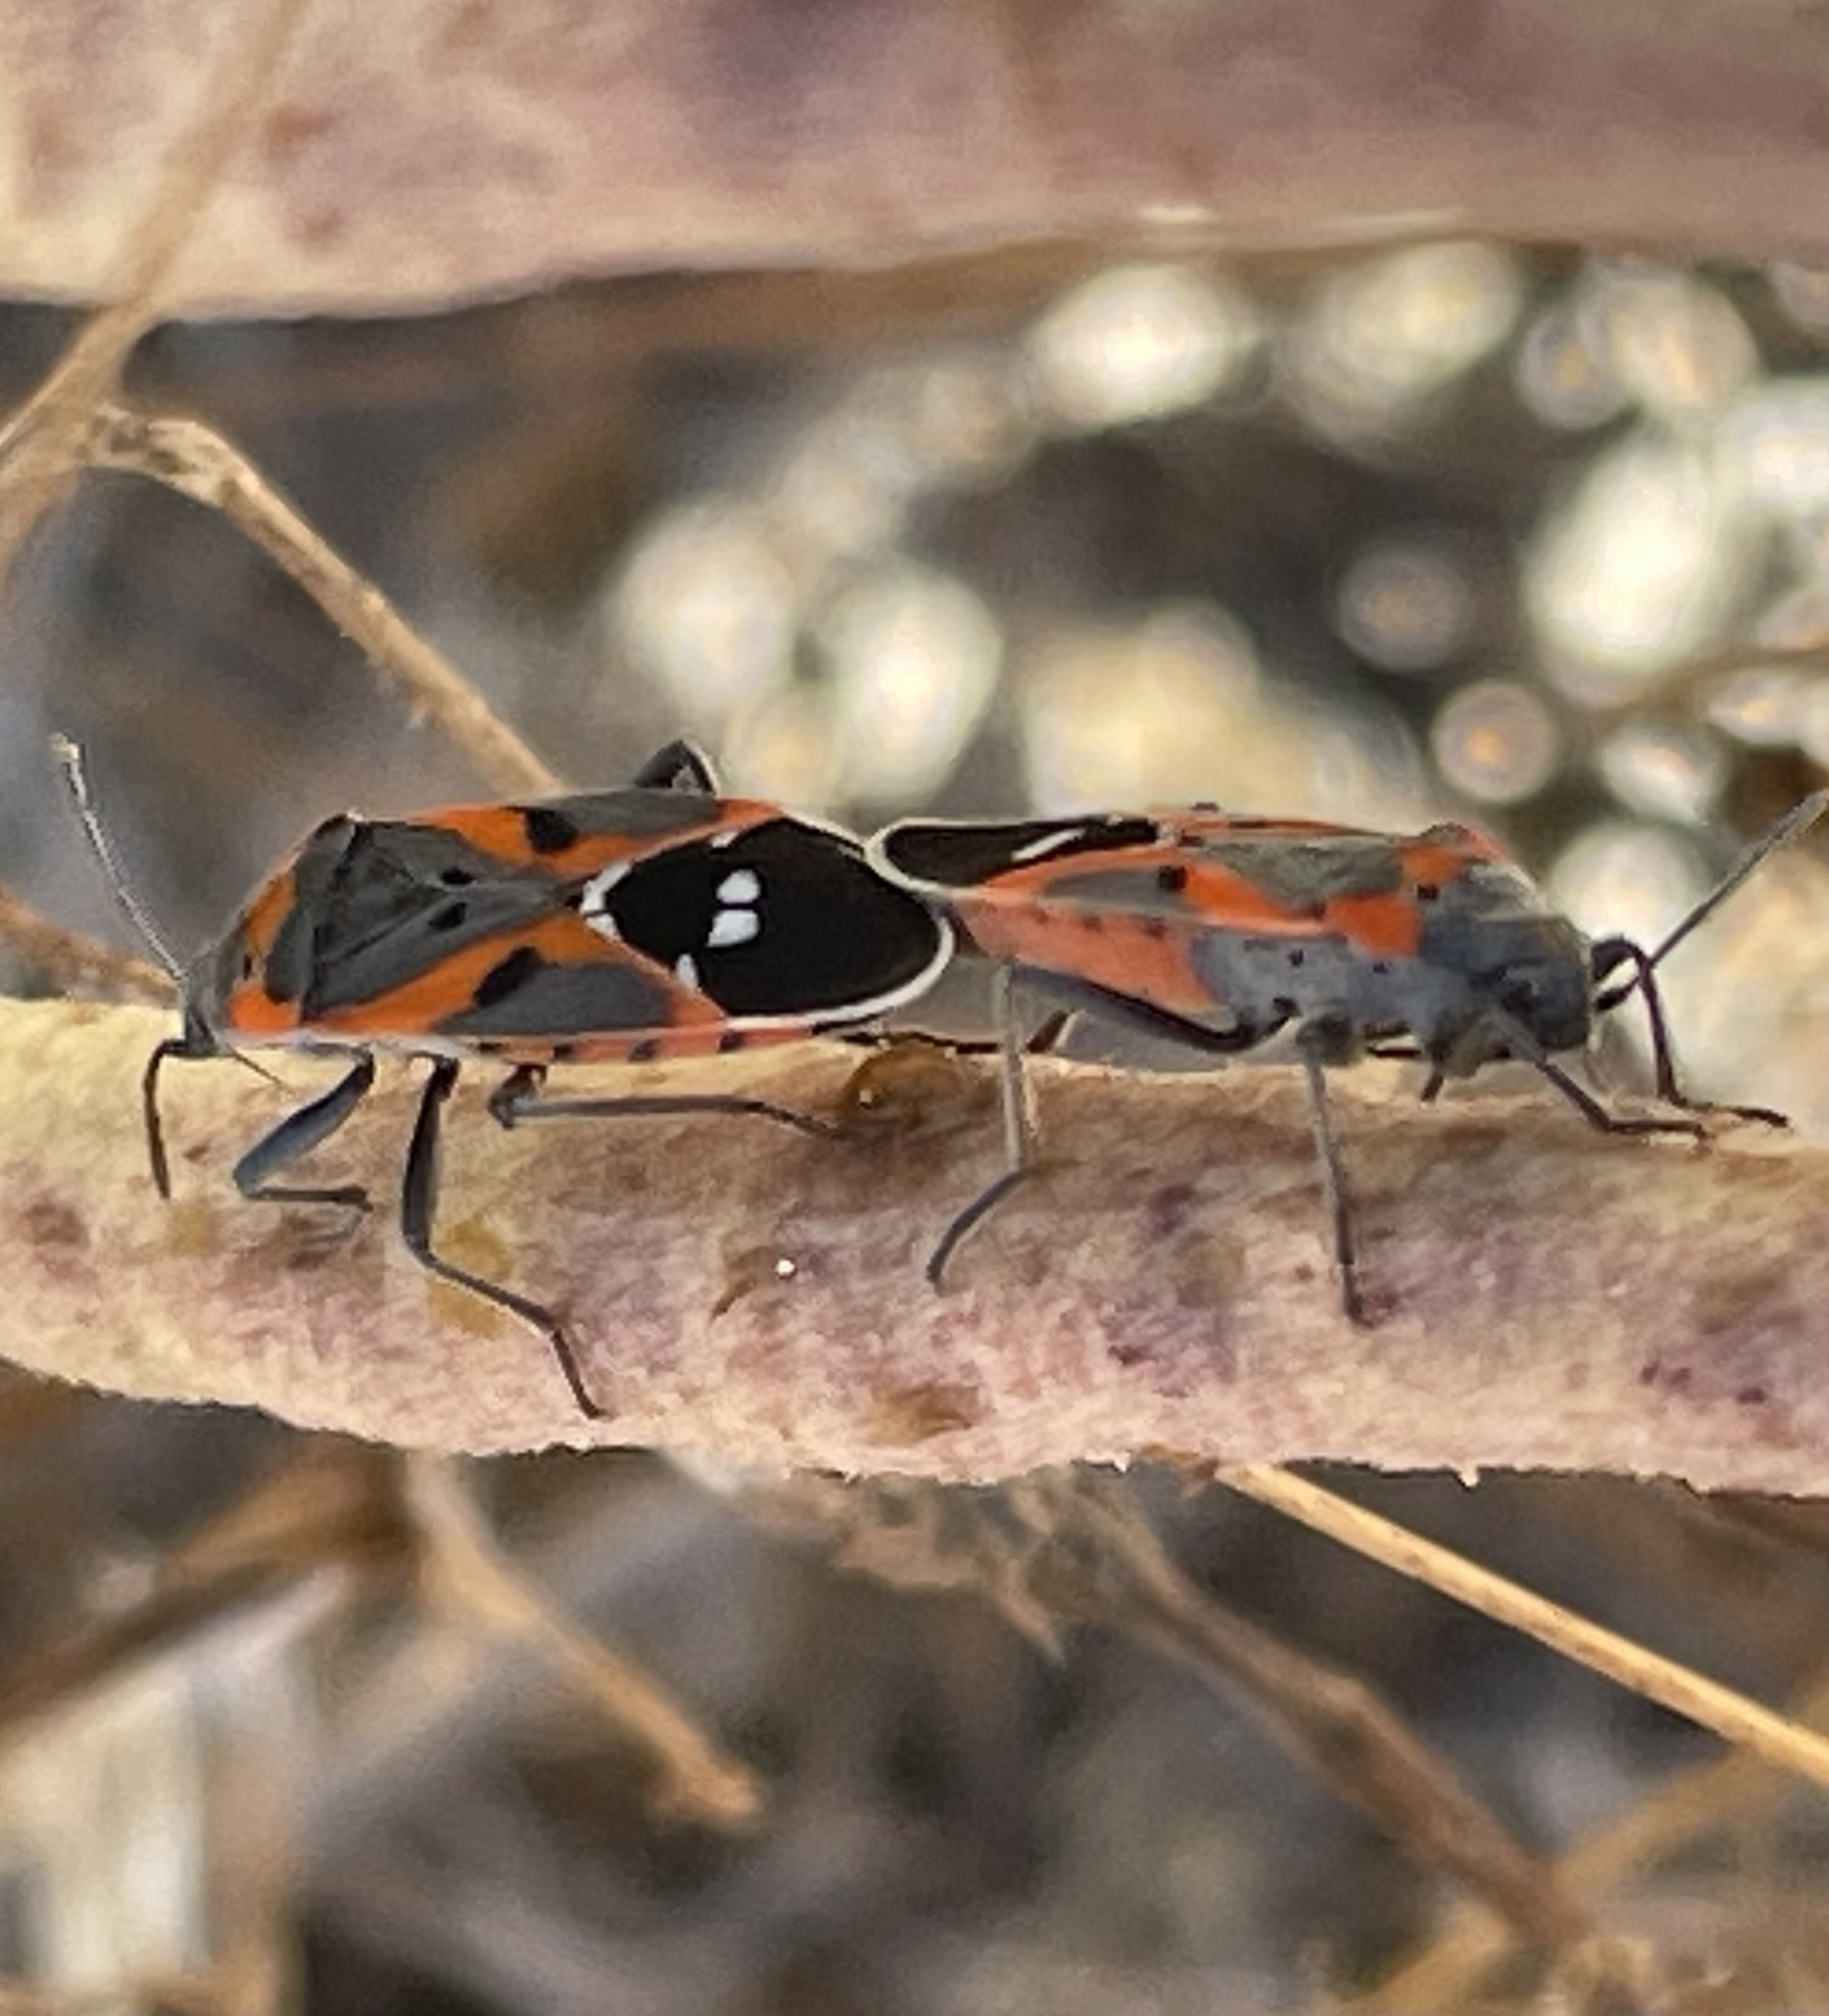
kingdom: Animalia
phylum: Arthropoda
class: Insecta
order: Hemiptera
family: Lygaeidae
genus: Lygaeus
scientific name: Lygaeus kalmii
